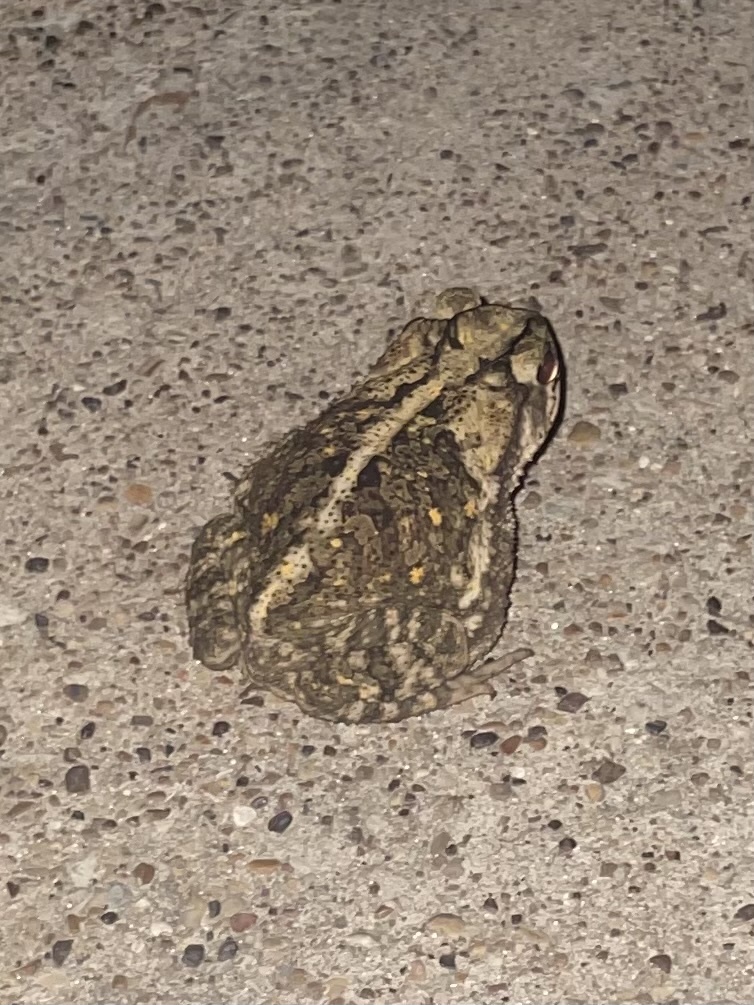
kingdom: Animalia
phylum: Chordata
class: Amphibia
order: Anura
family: Bufonidae
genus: Incilius
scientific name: Incilius nebulifer
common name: Gulf coast toad
